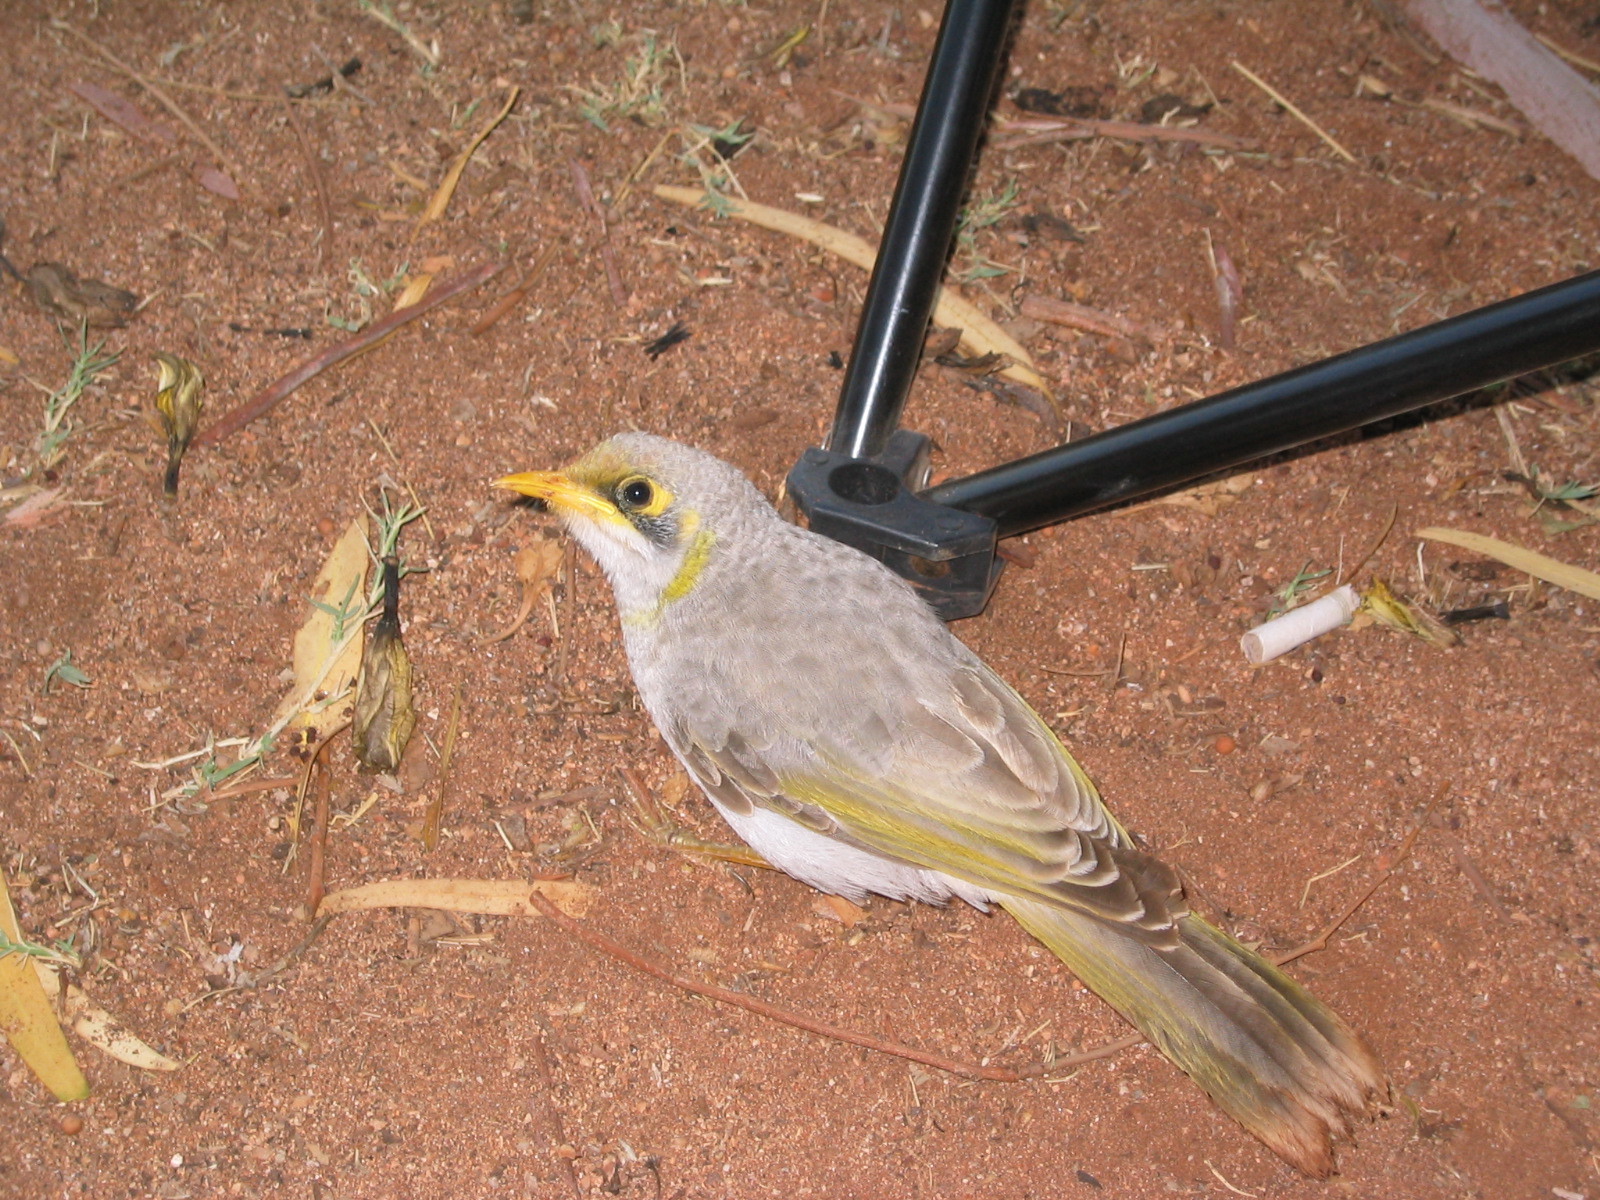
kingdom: Animalia
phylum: Chordata
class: Aves
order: Passeriformes
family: Meliphagidae
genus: Manorina
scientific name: Manorina flavigula
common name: Yellow-throated miner
